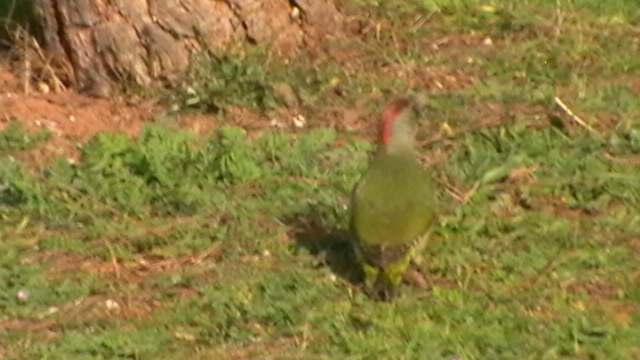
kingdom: Animalia
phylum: Chordata
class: Aves
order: Piciformes
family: Picidae
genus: Picus
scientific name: Picus sharpei
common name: Iberian green woodpecker
